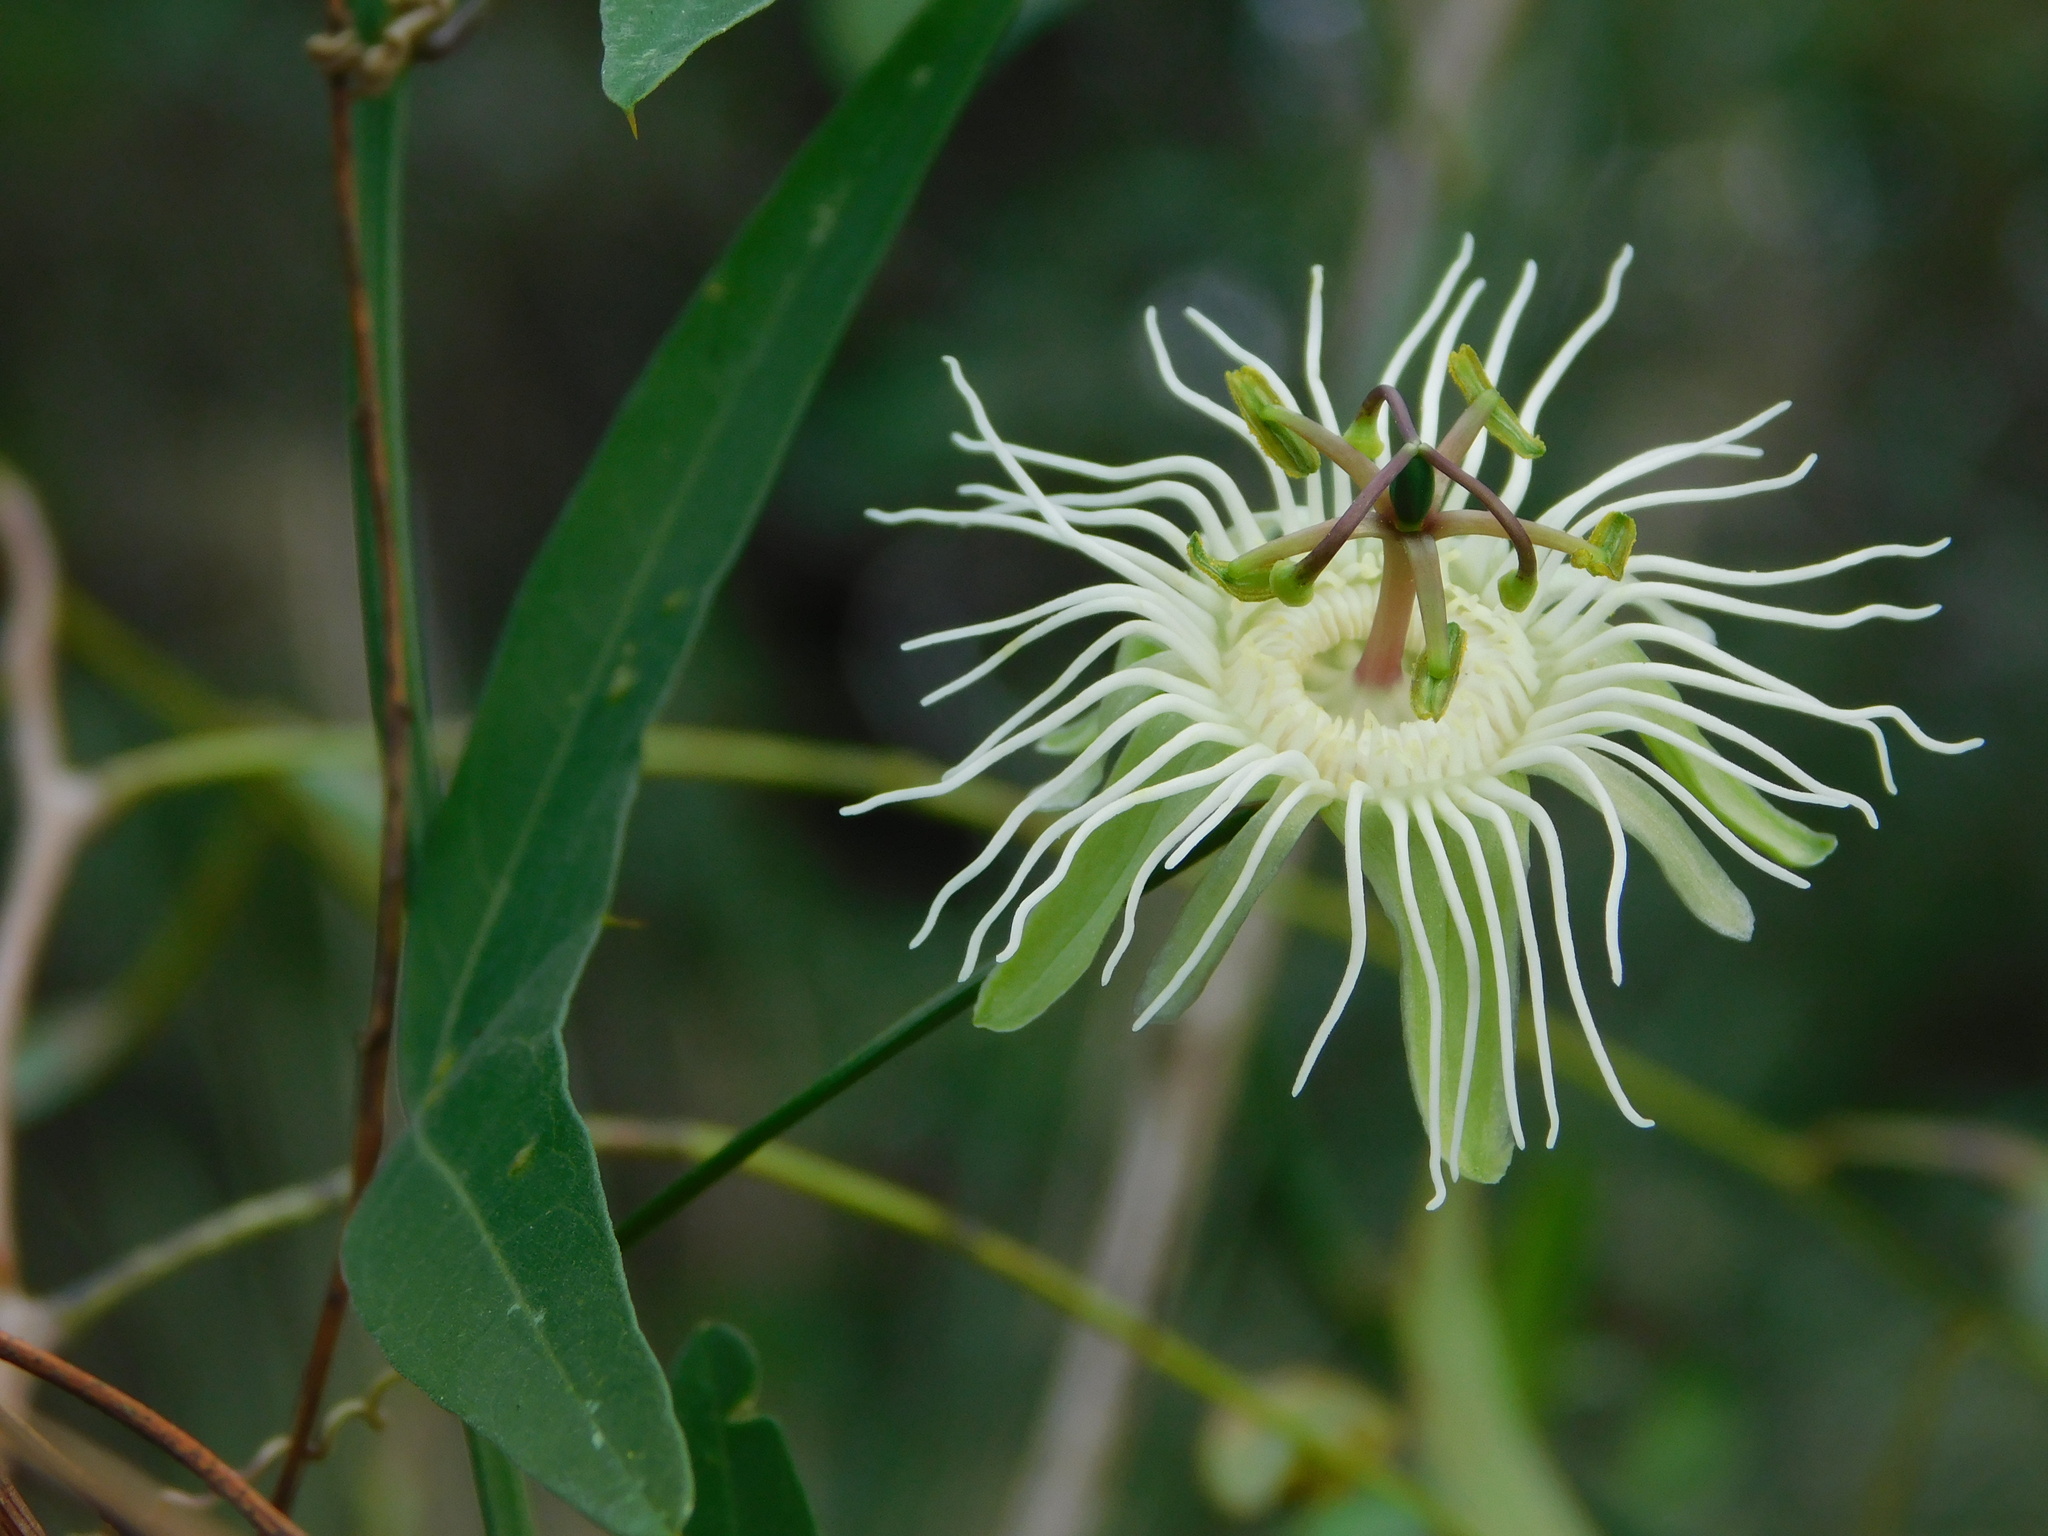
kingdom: Plantae
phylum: Tracheophyta
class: Magnoliopsida
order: Malpighiales
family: Passifloraceae
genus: Passiflora
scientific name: Passiflora misera
